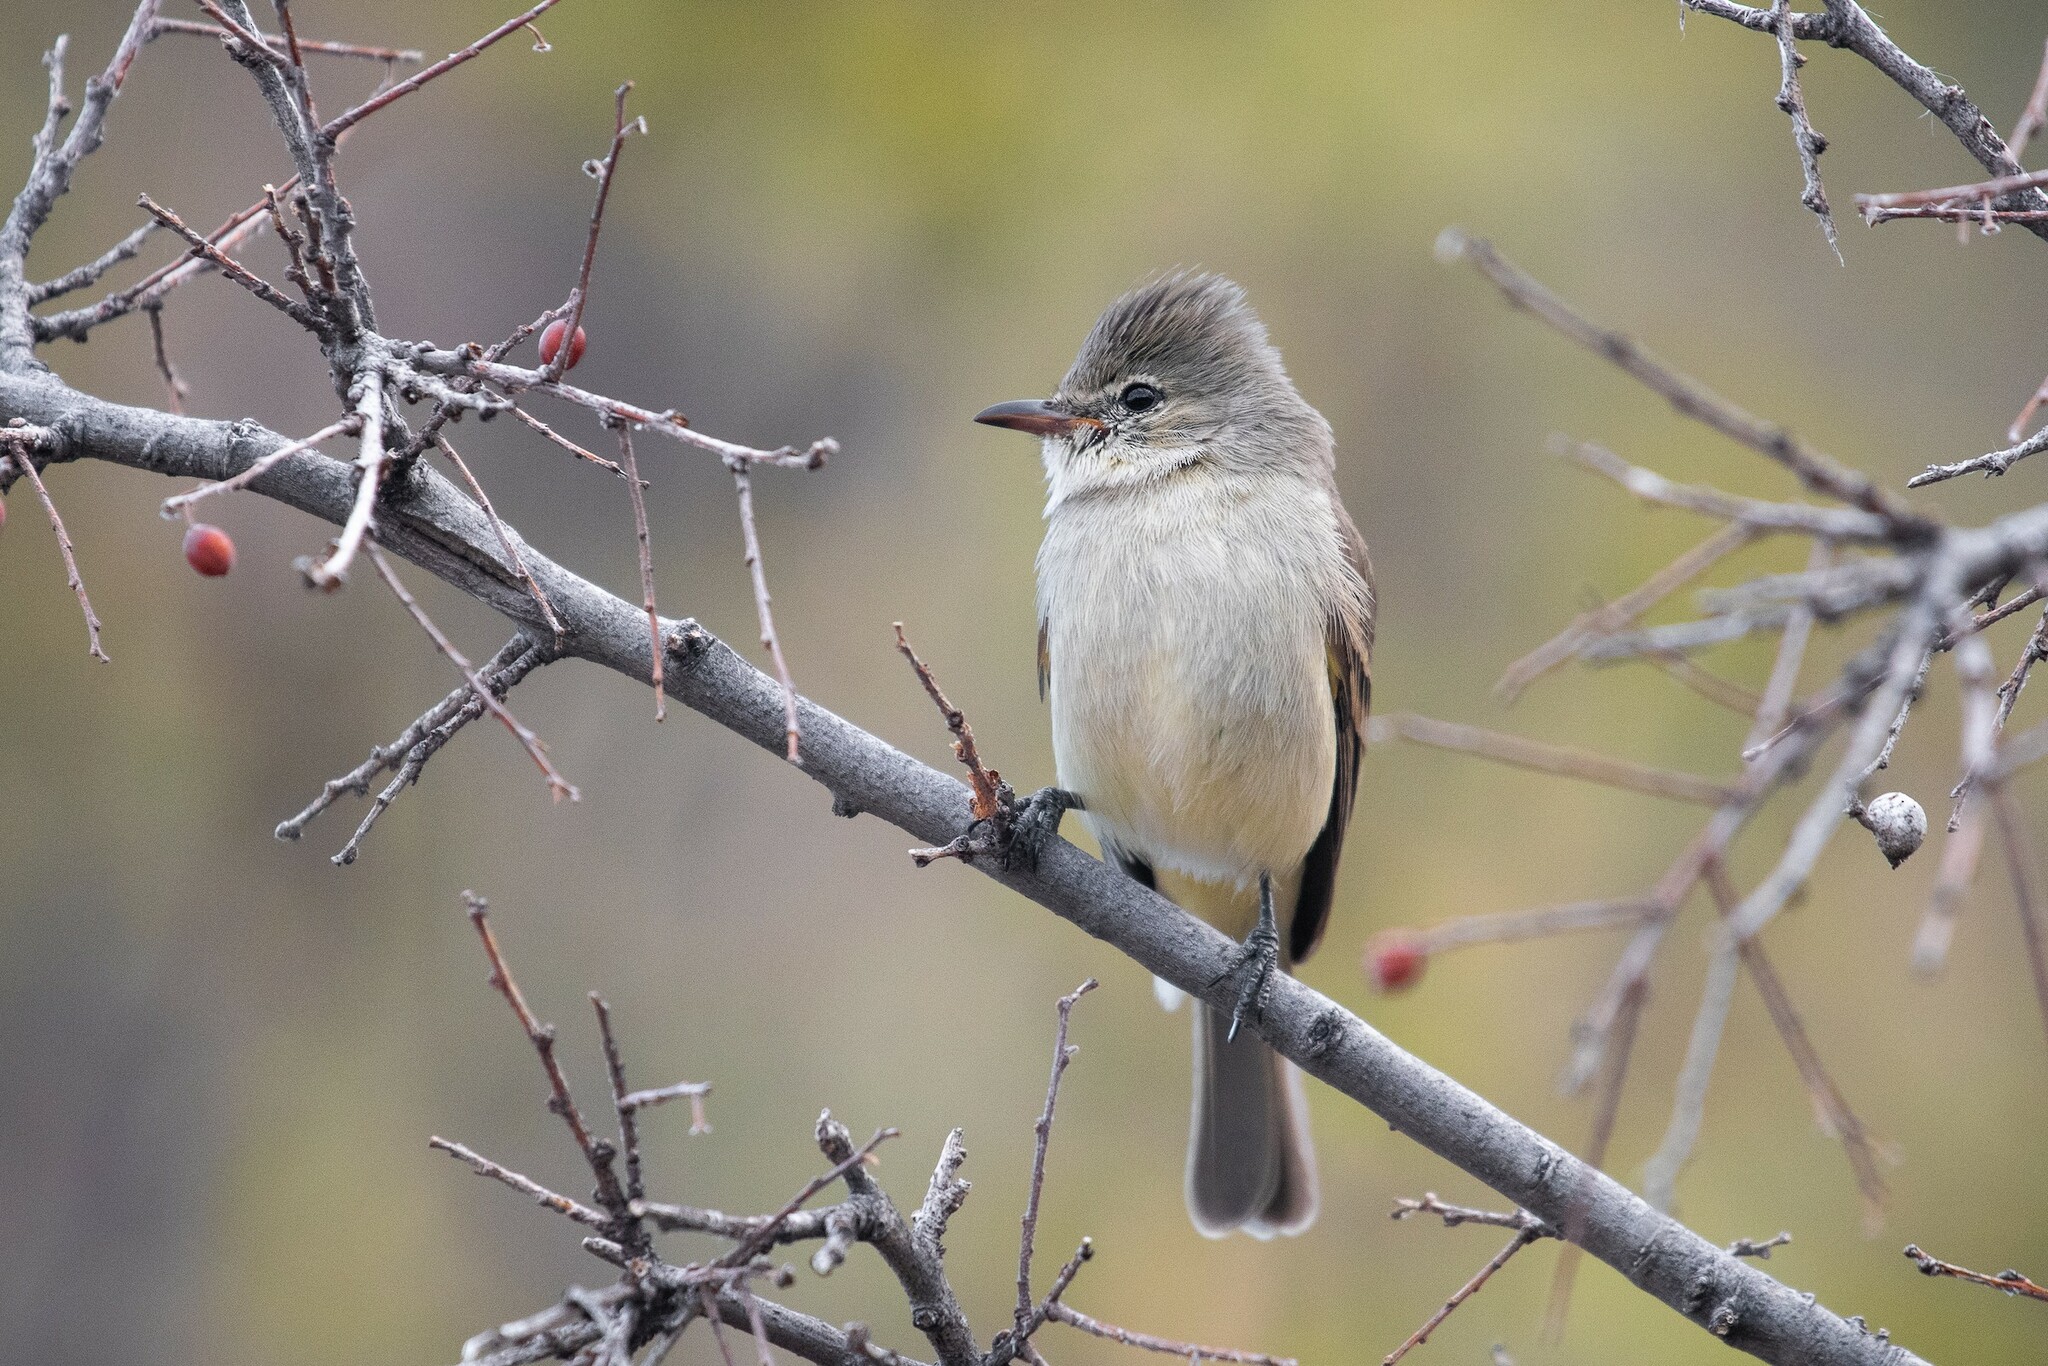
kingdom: Animalia
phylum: Chordata
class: Aves
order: Passeriformes
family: Tyrannidae
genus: Camptostoma
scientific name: Camptostoma imberbe
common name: Northern beardless-tyrannulet
